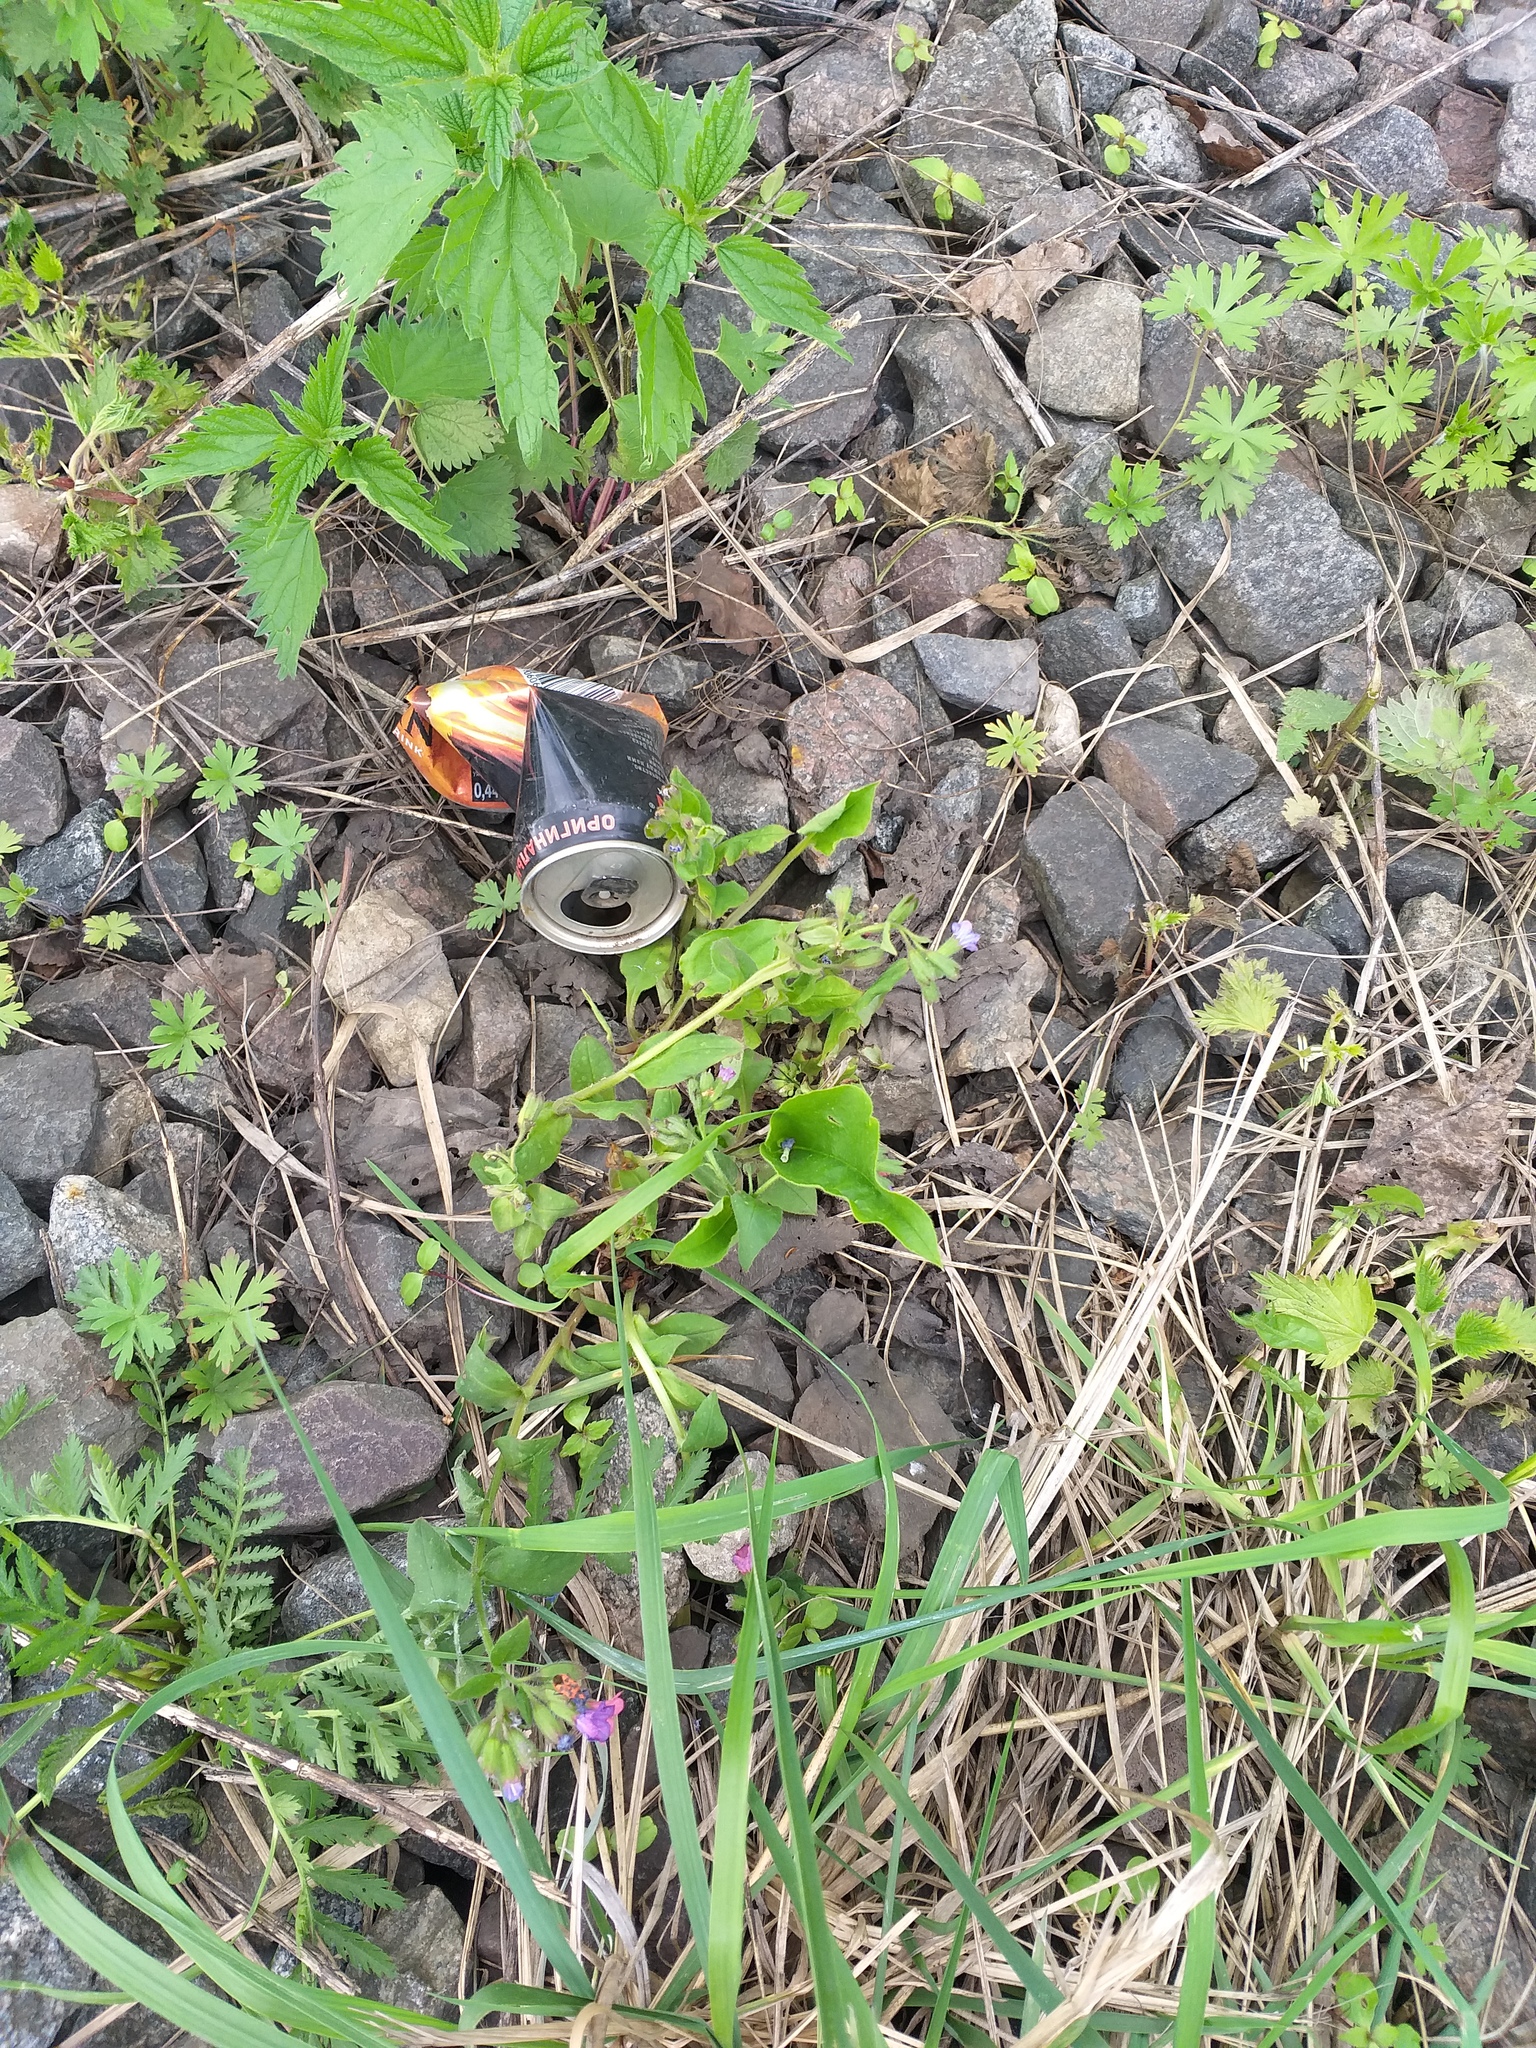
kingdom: Plantae
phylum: Tracheophyta
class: Magnoliopsida
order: Boraginales
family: Boraginaceae
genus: Pulmonaria
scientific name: Pulmonaria obscura
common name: Suffolk lungwort
